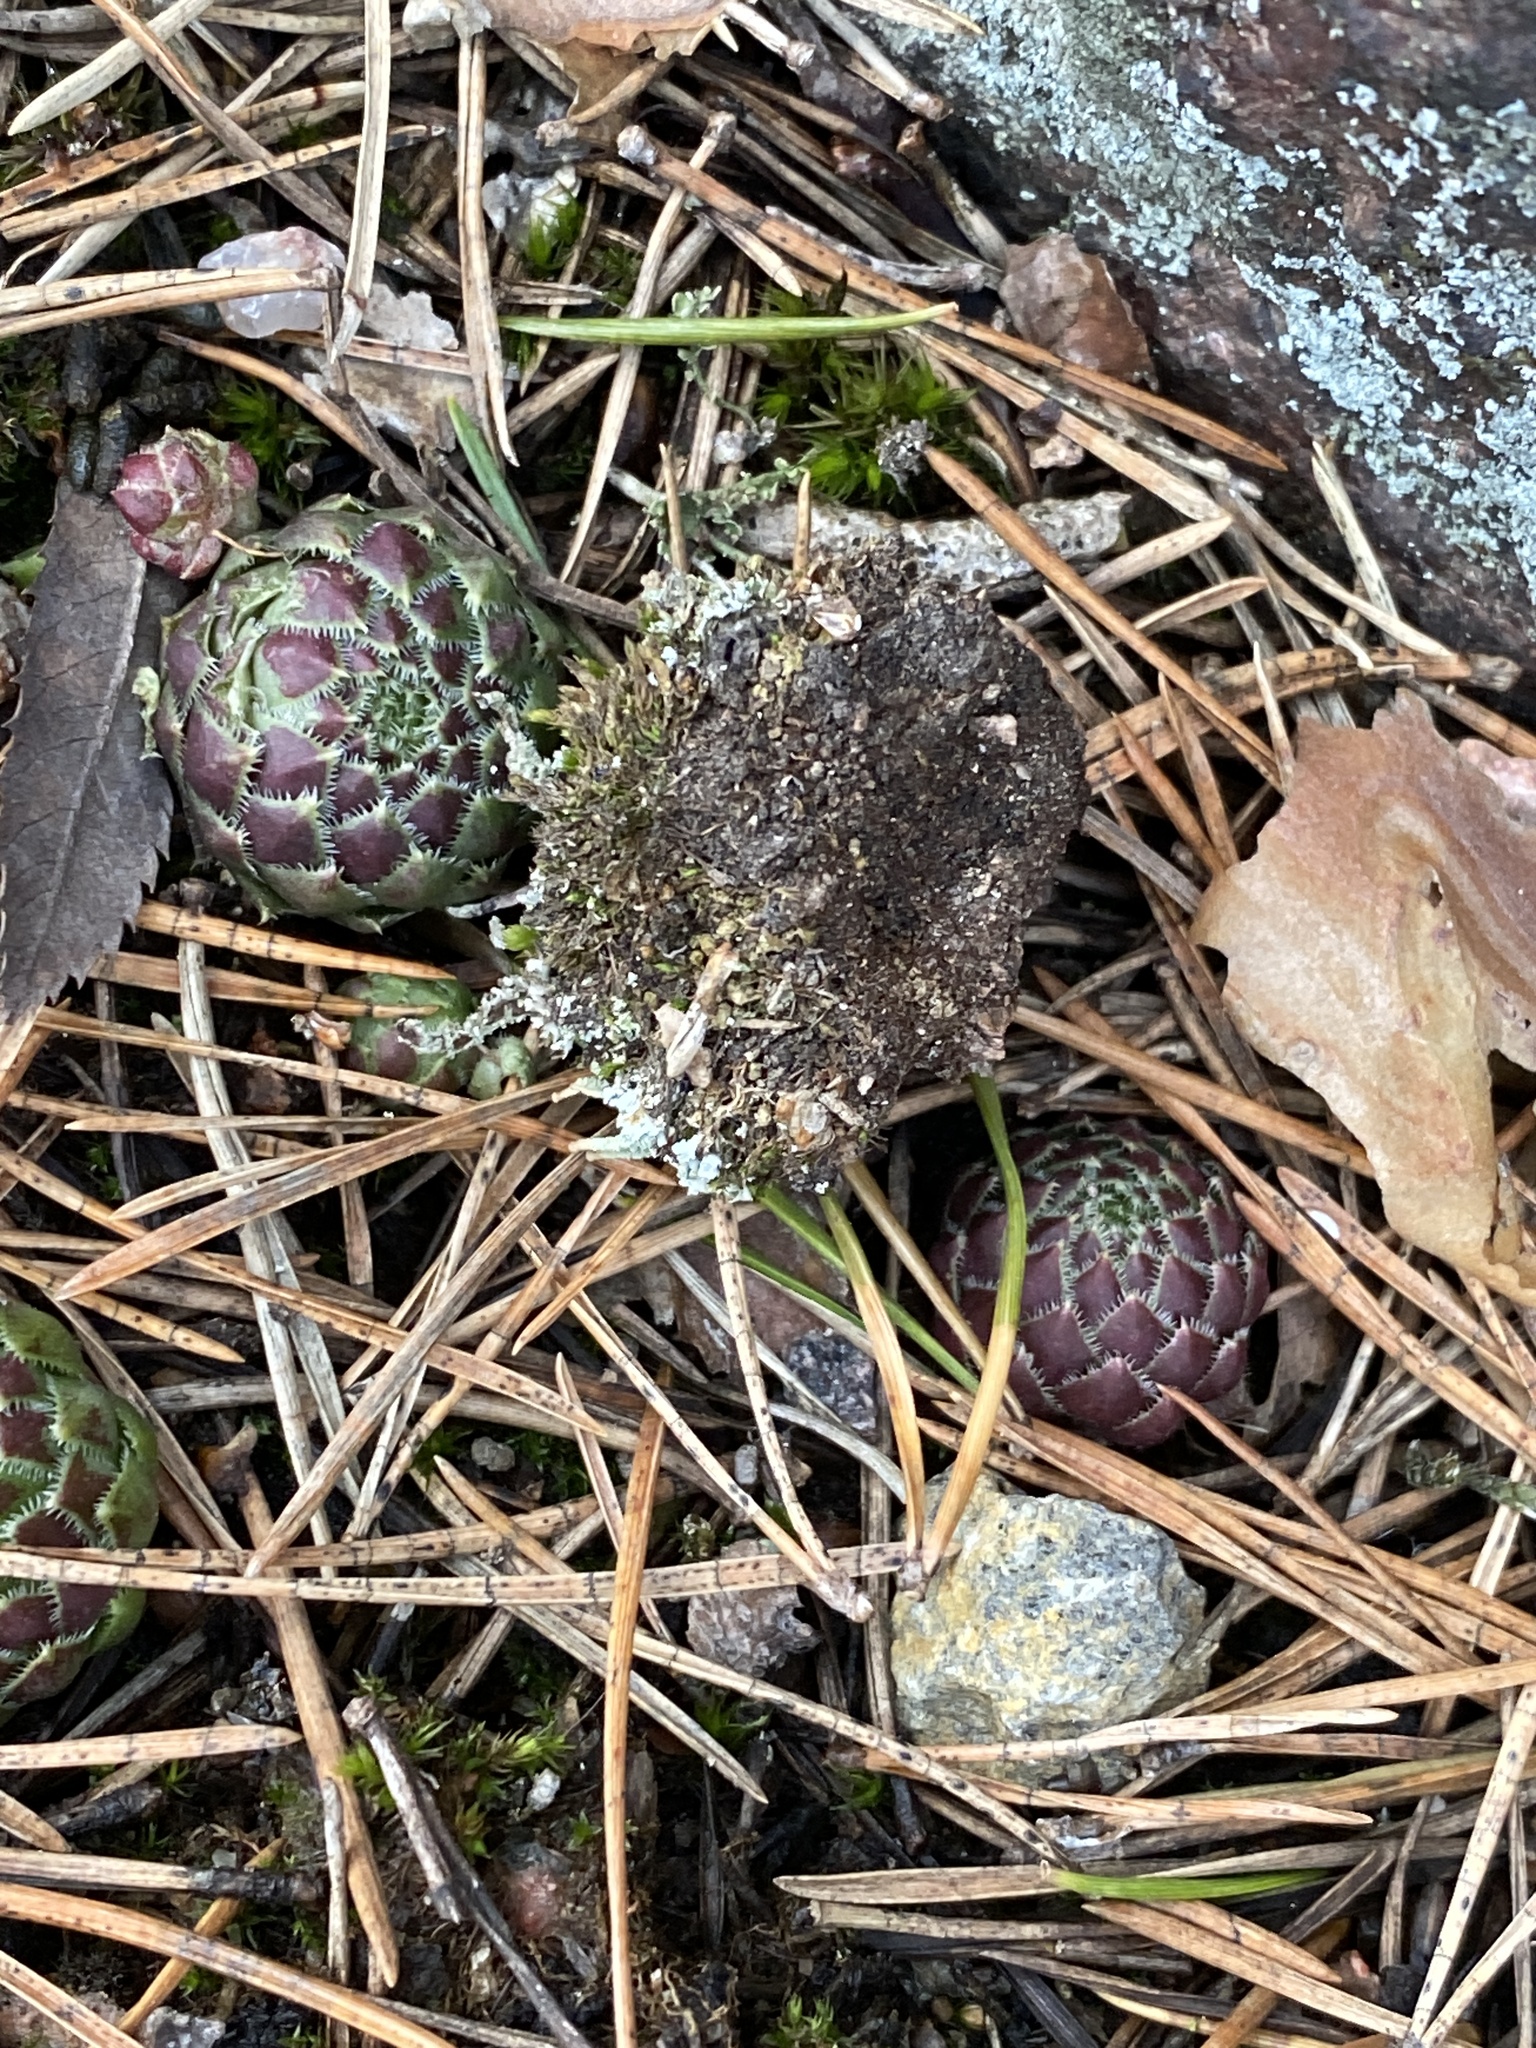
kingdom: Plantae
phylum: Tracheophyta
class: Magnoliopsida
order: Saxifragales
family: Crassulaceae
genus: Sempervivum
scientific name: Sempervivum globiferum
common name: Rolling hen-and-chicks
